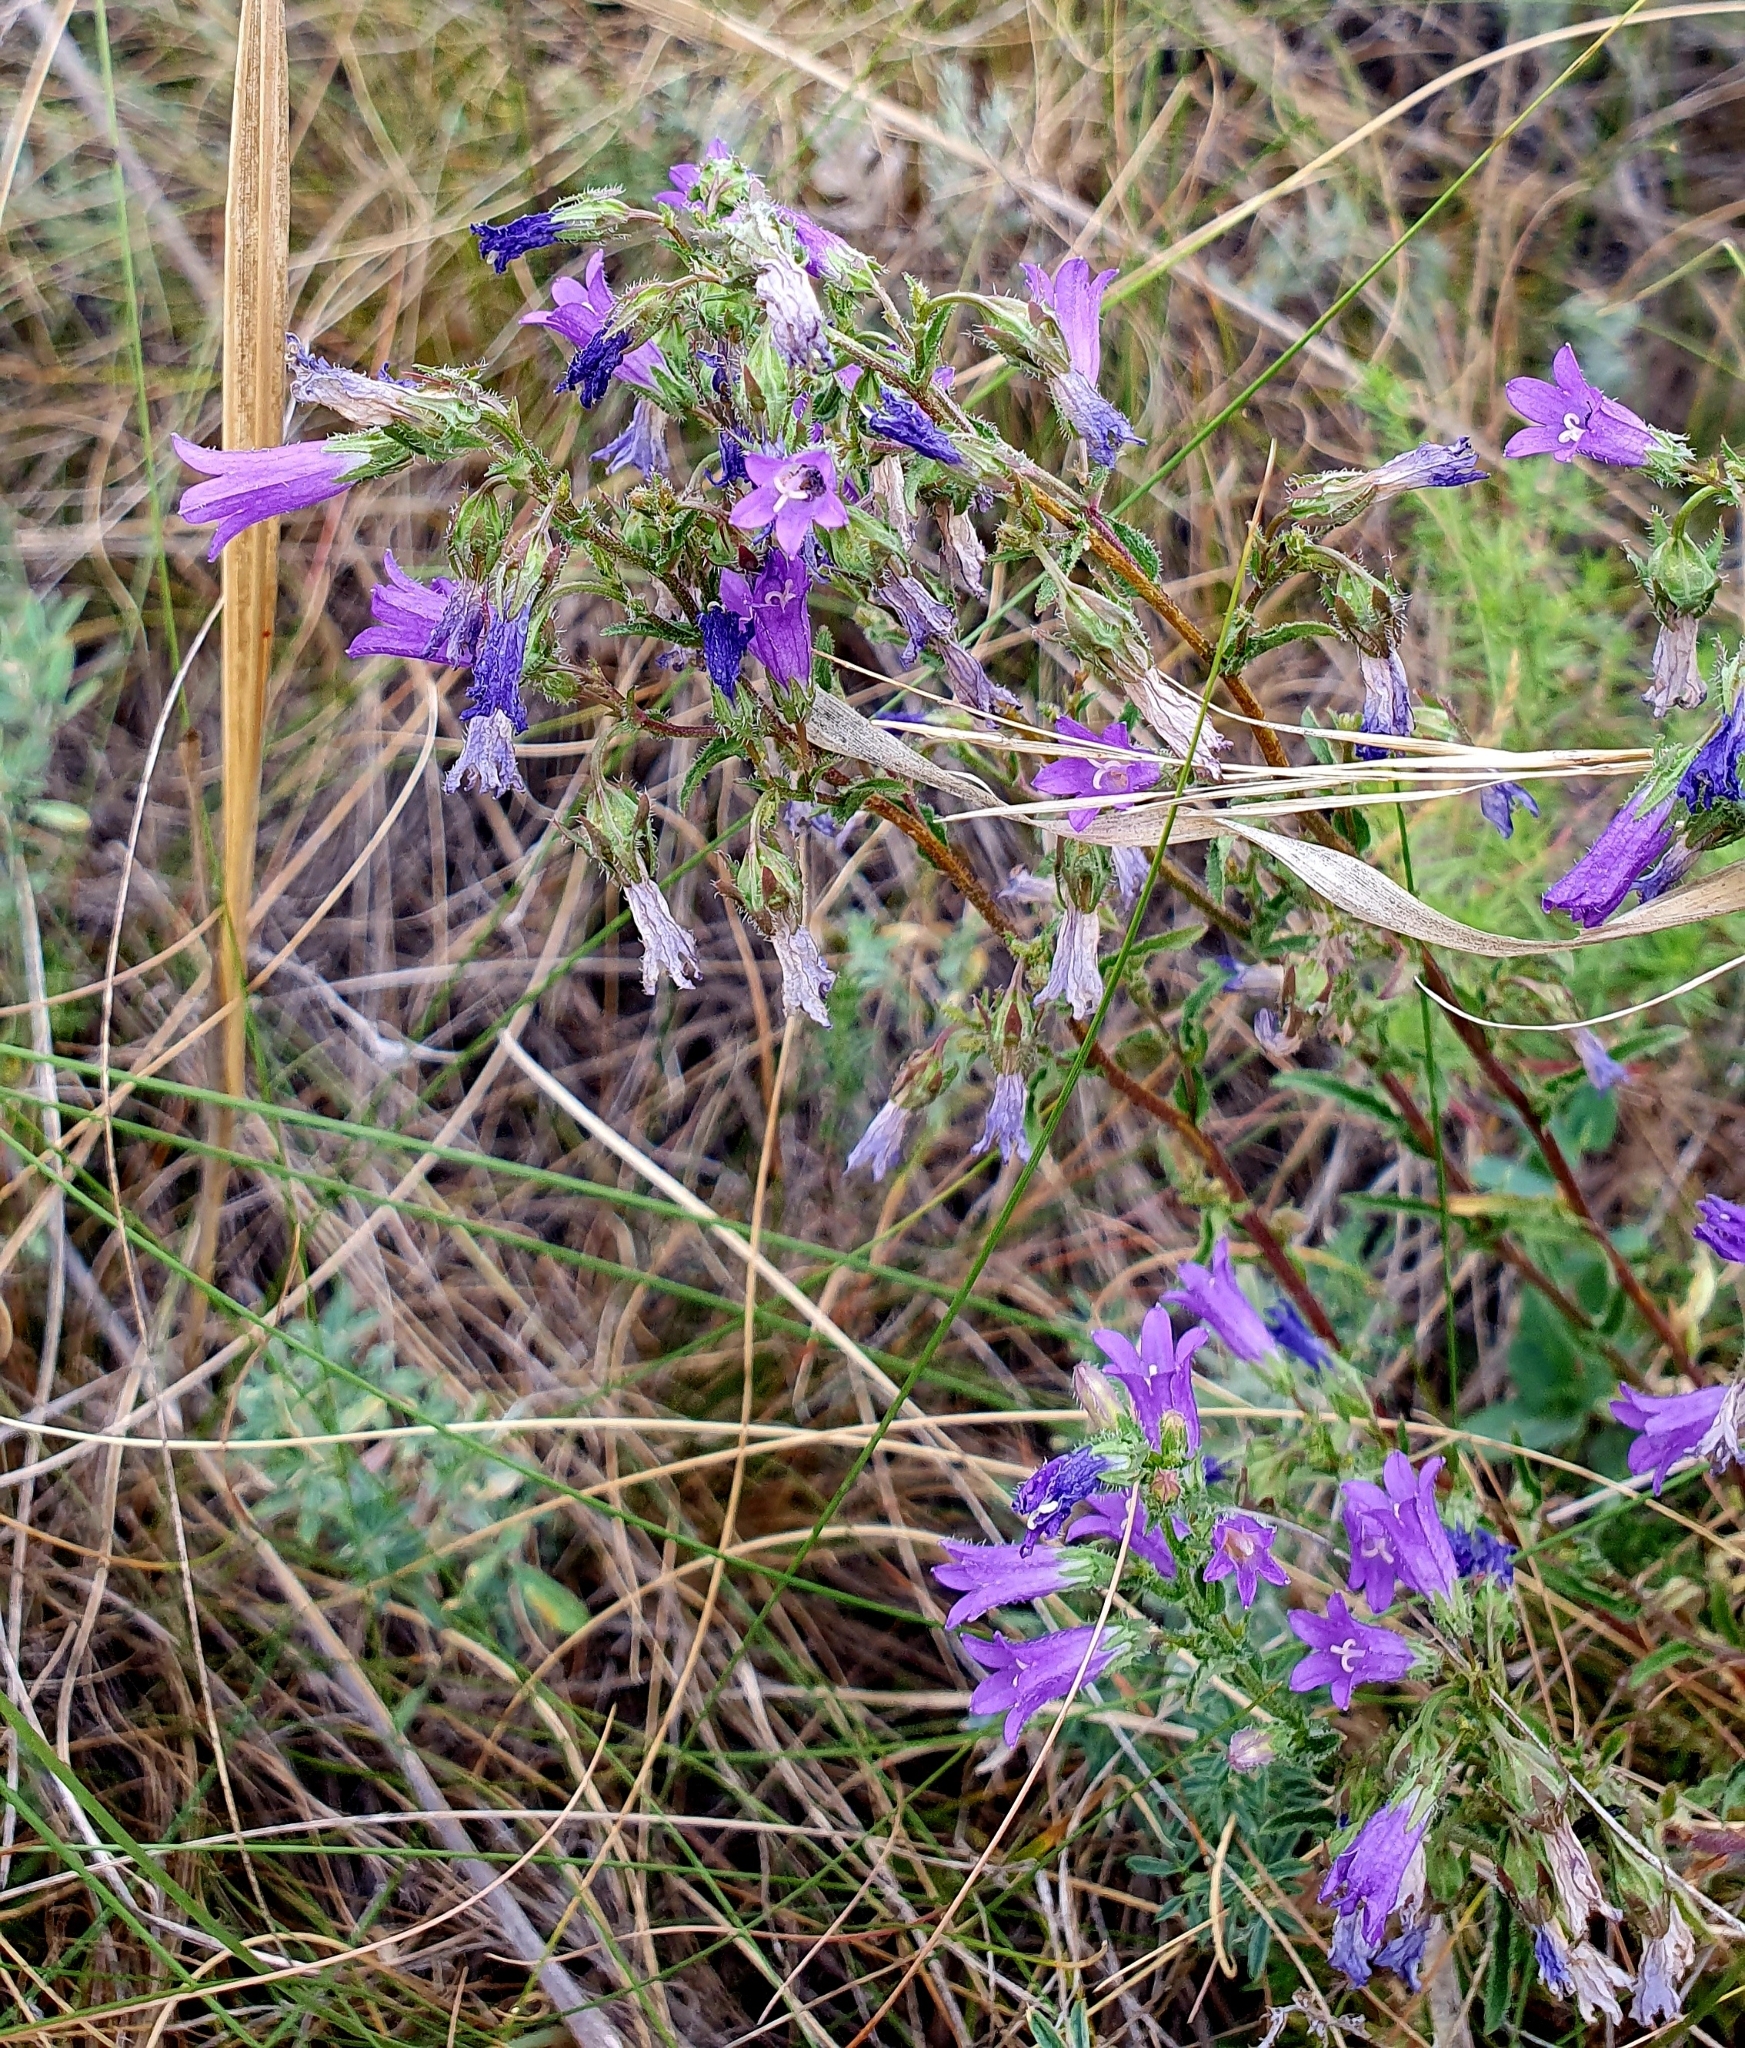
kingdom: Plantae
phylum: Tracheophyta
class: Magnoliopsida
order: Asterales
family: Campanulaceae
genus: Campanula
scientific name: Campanula sibirica
